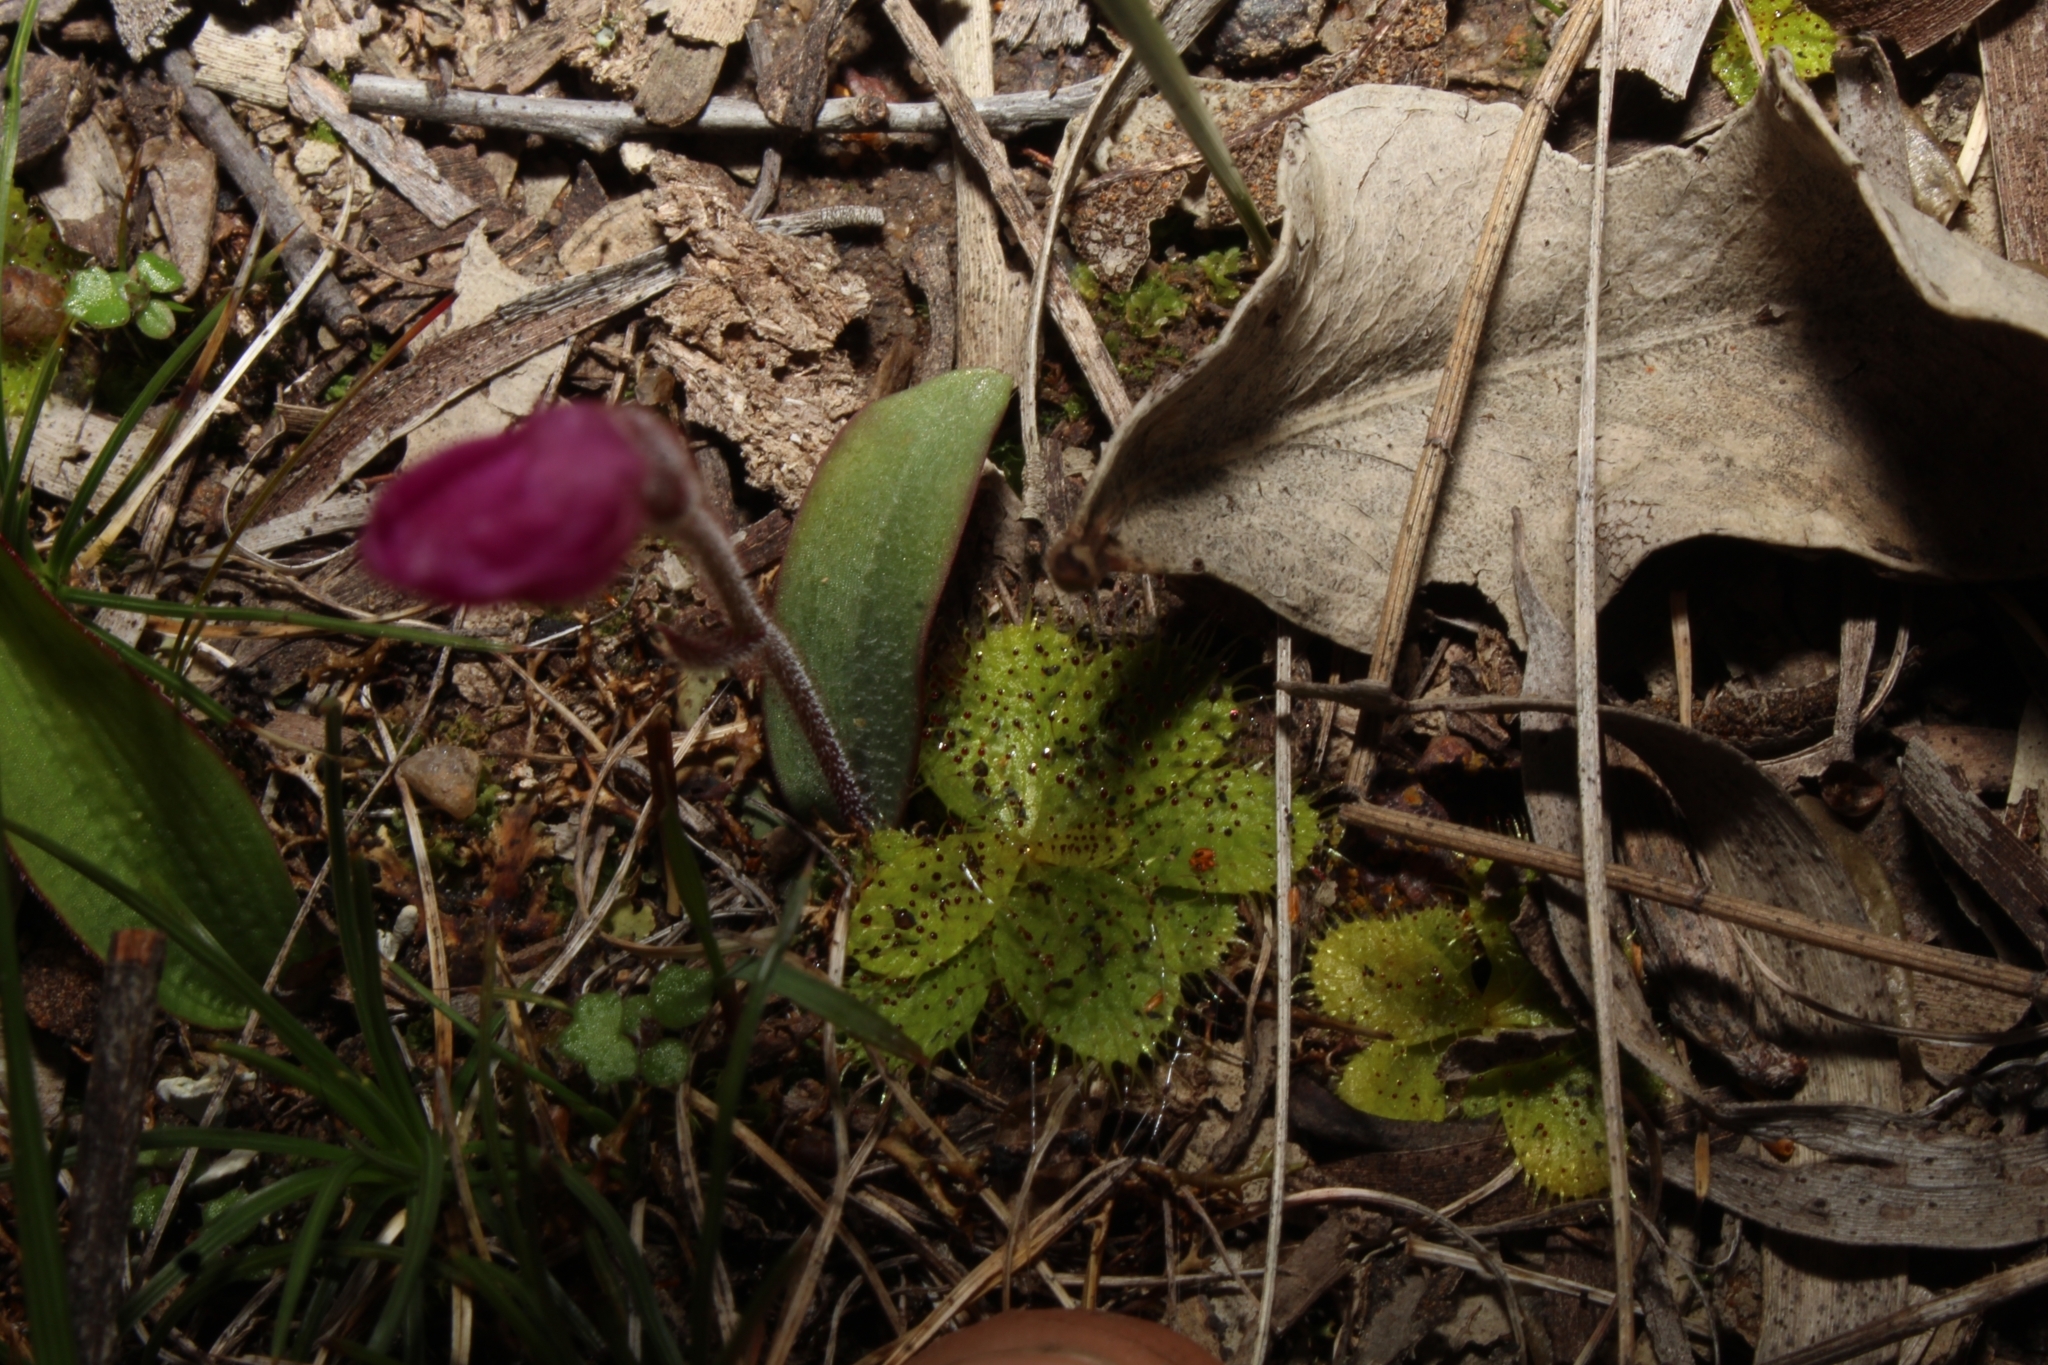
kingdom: Plantae
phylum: Tracheophyta
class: Magnoliopsida
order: Caryophyllales
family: Droseraceae
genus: Drosera
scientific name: Drosera macrantha
